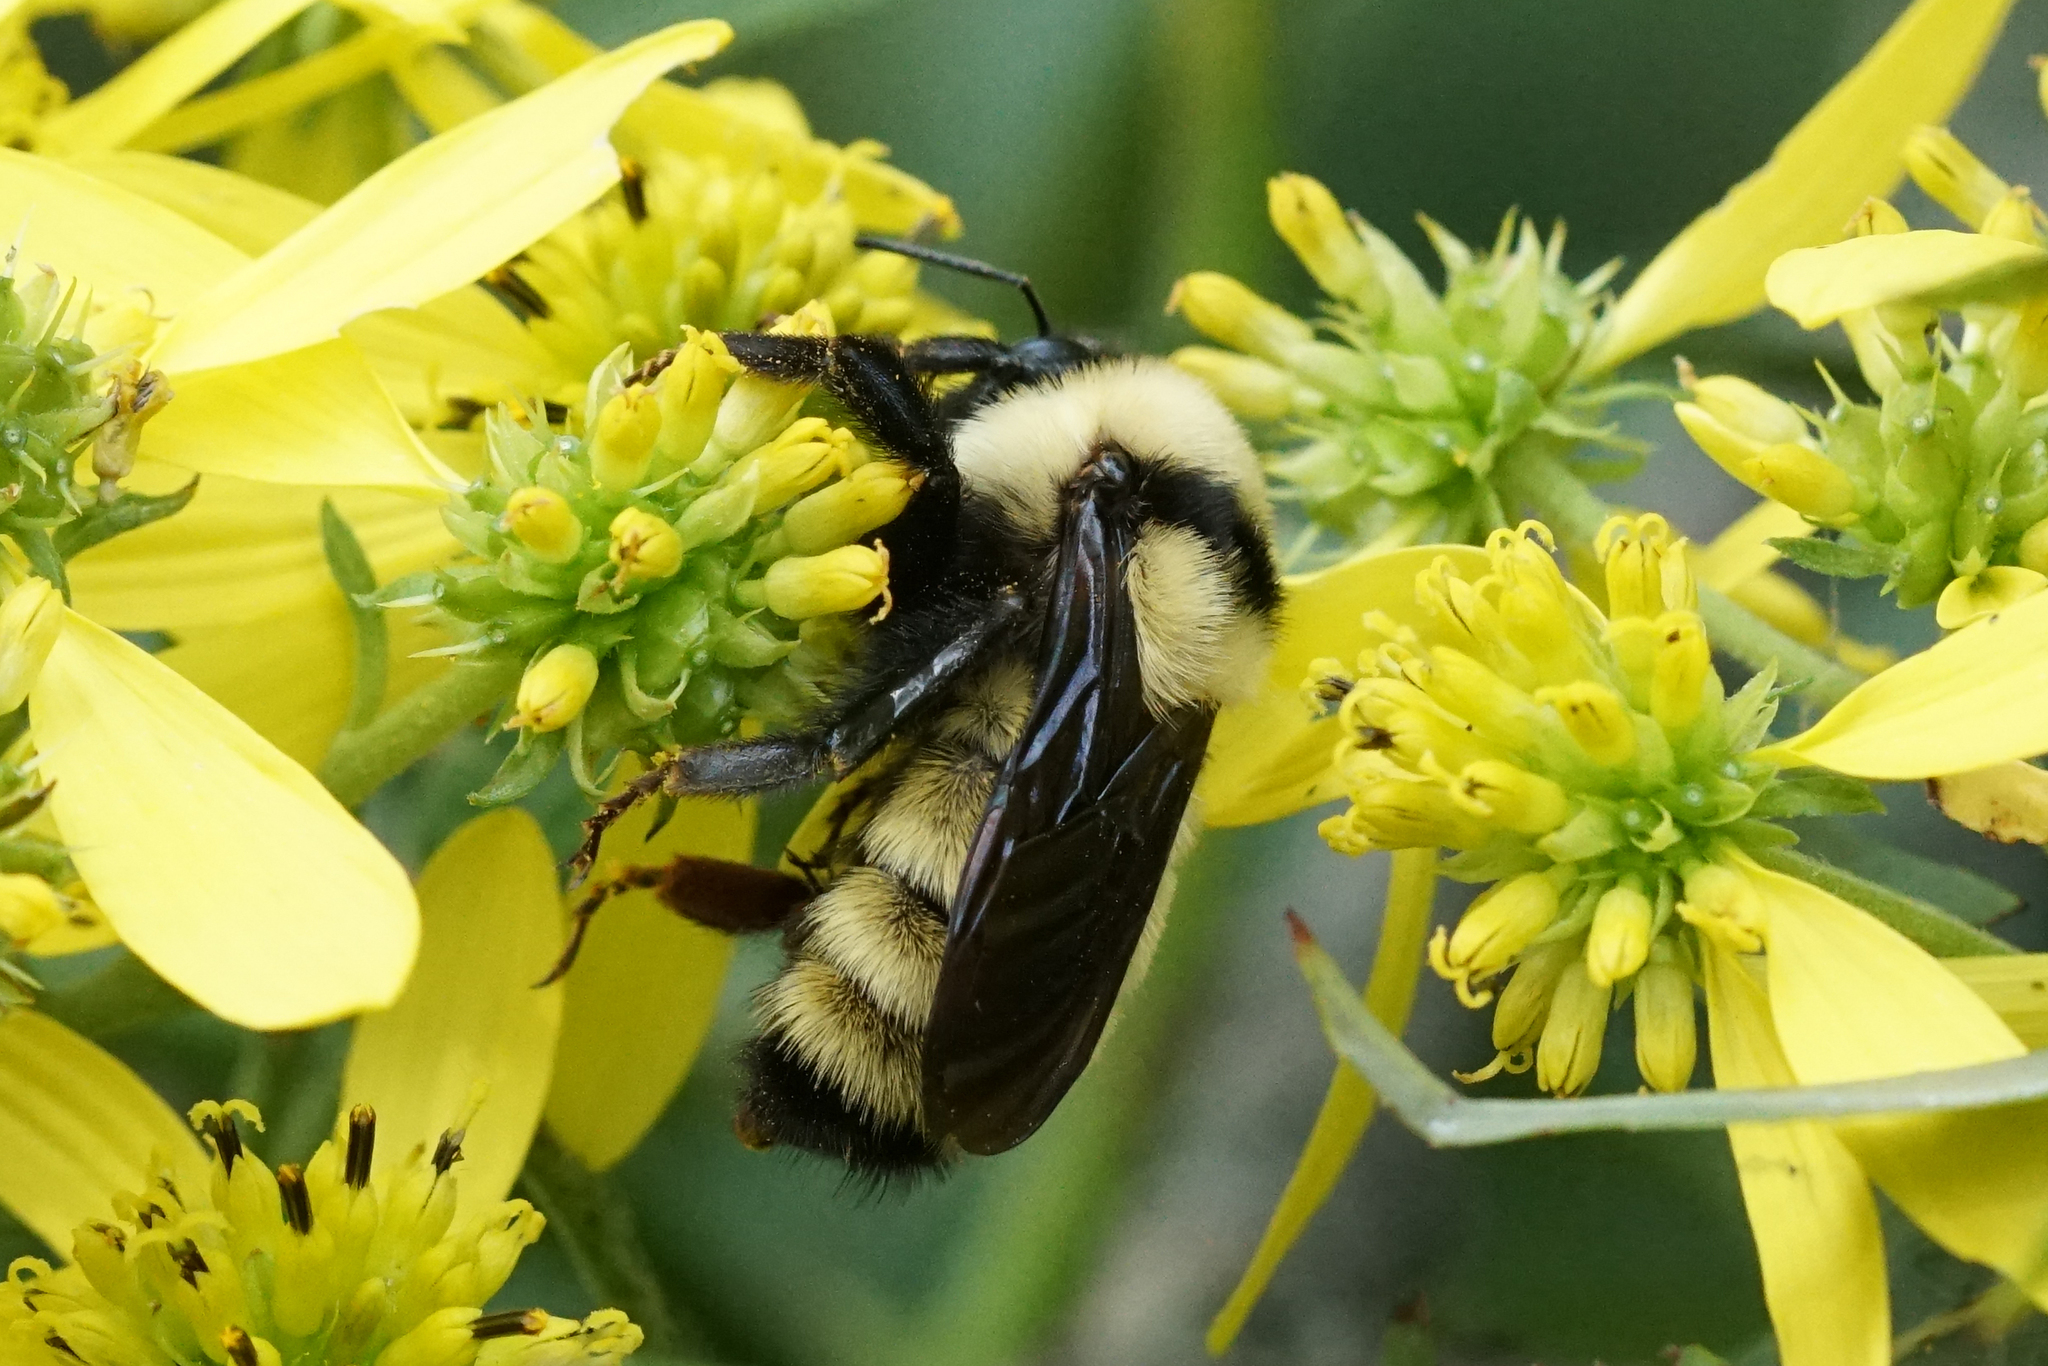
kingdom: Animalia
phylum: Arthropoda
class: Insecta
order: Hymenoptera
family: Apidae
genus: Bombus
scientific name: Bombus fervidus
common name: Yellow bumble bee
